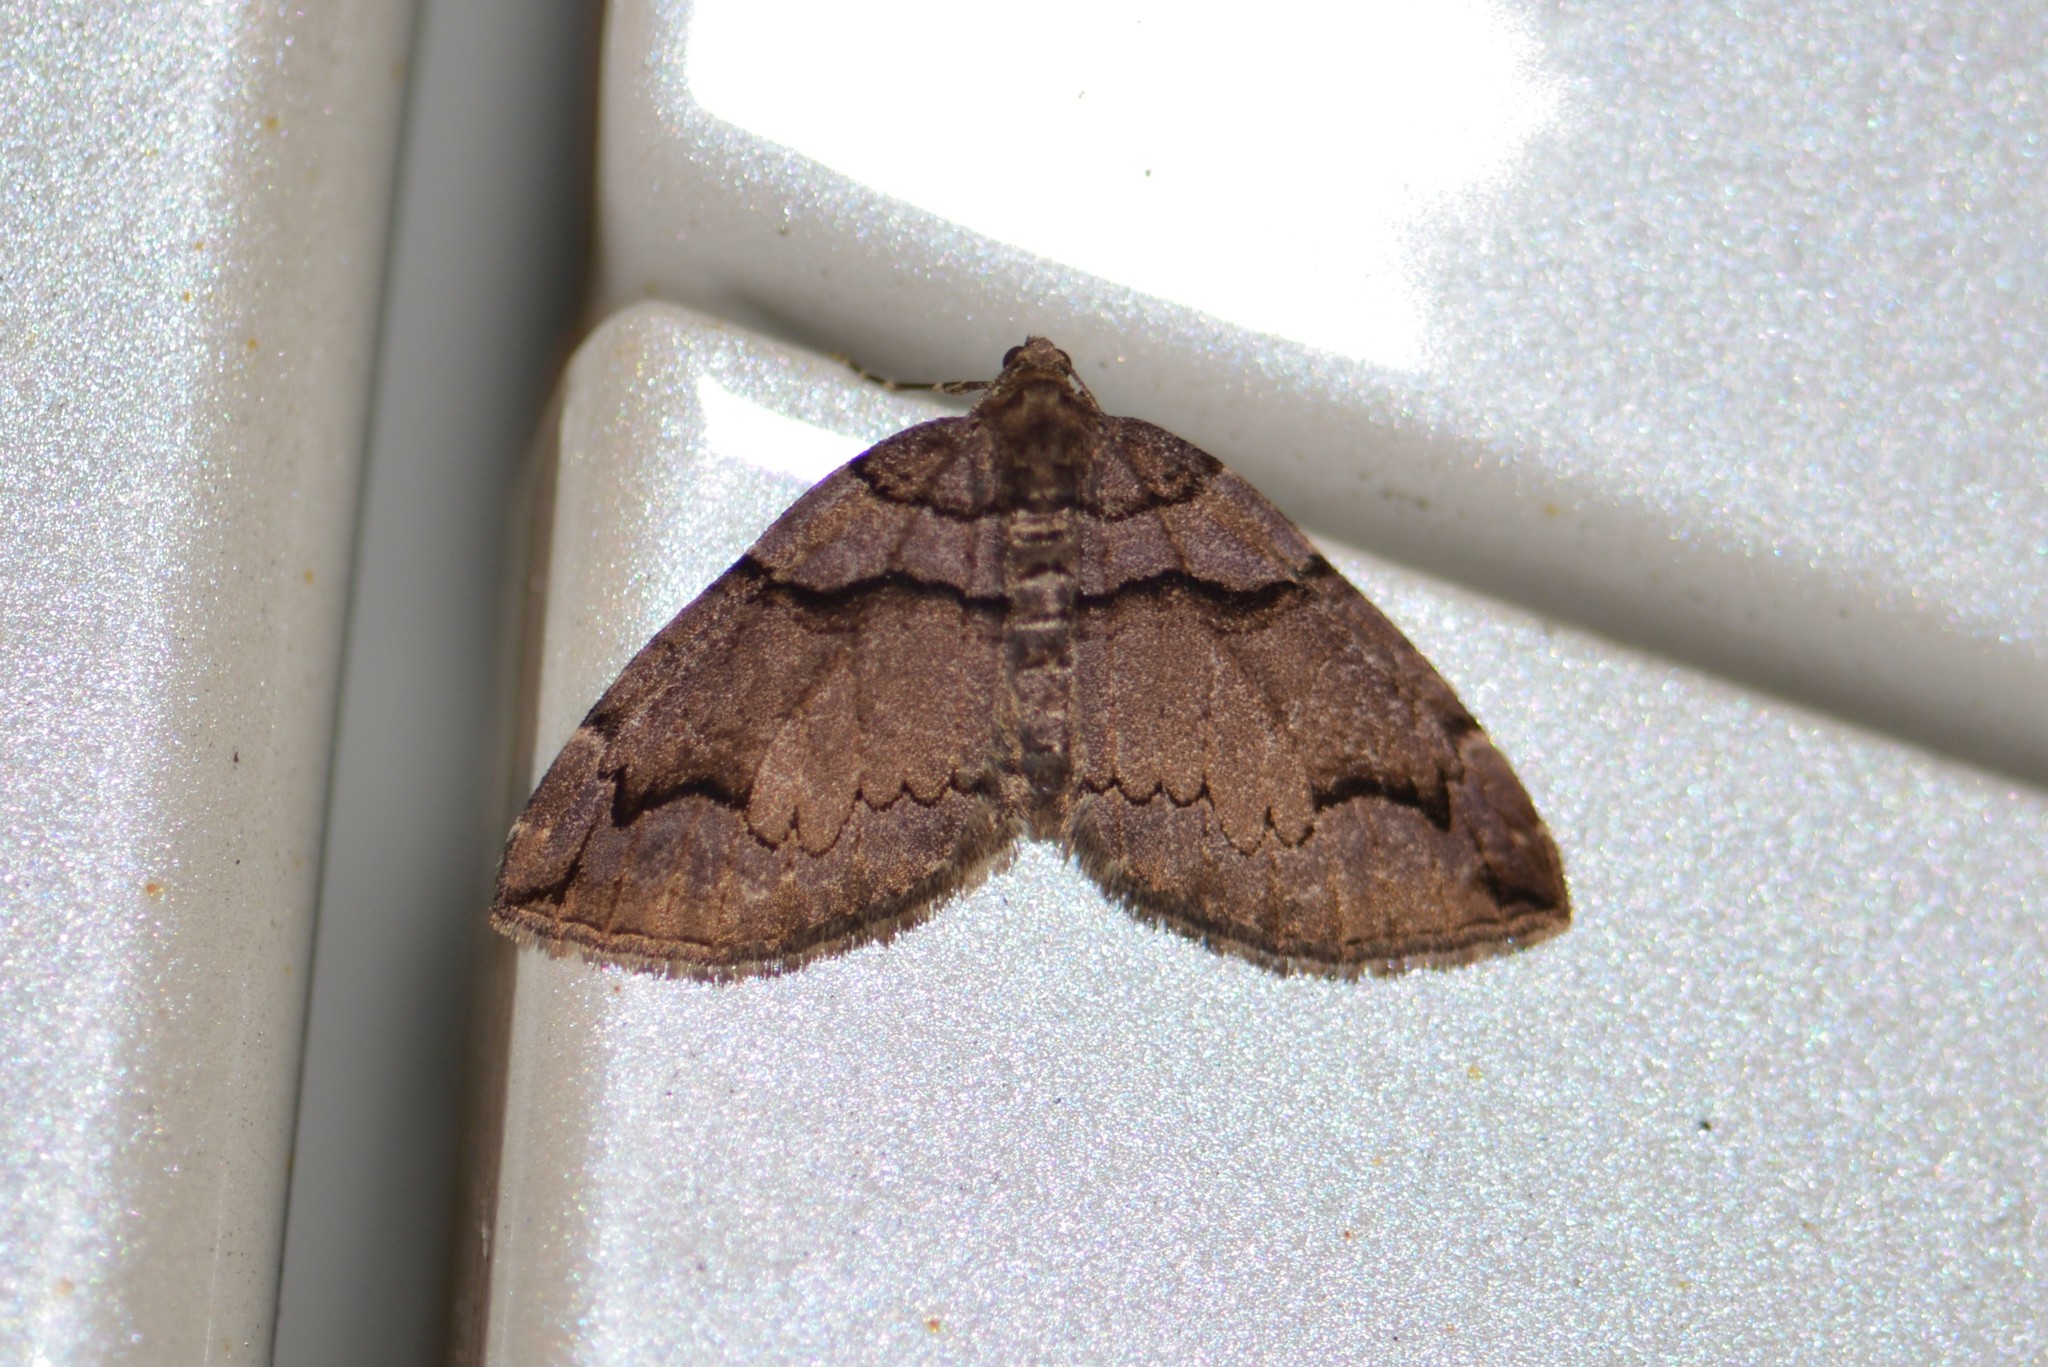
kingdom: Animalia
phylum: Arthropoda
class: Insecta
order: Lepidoptera
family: Geometridae
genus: Anticlea
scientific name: Anticlea vasiliata
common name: Variable carpet
